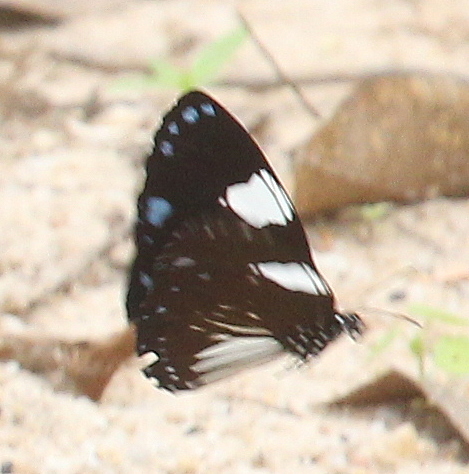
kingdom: Animalia
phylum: Arthropoda
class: Insecta
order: Lepidoptera
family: Nymphalidae
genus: Euploea
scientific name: Euploea radamanthus
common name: Magpie crow butterfly
